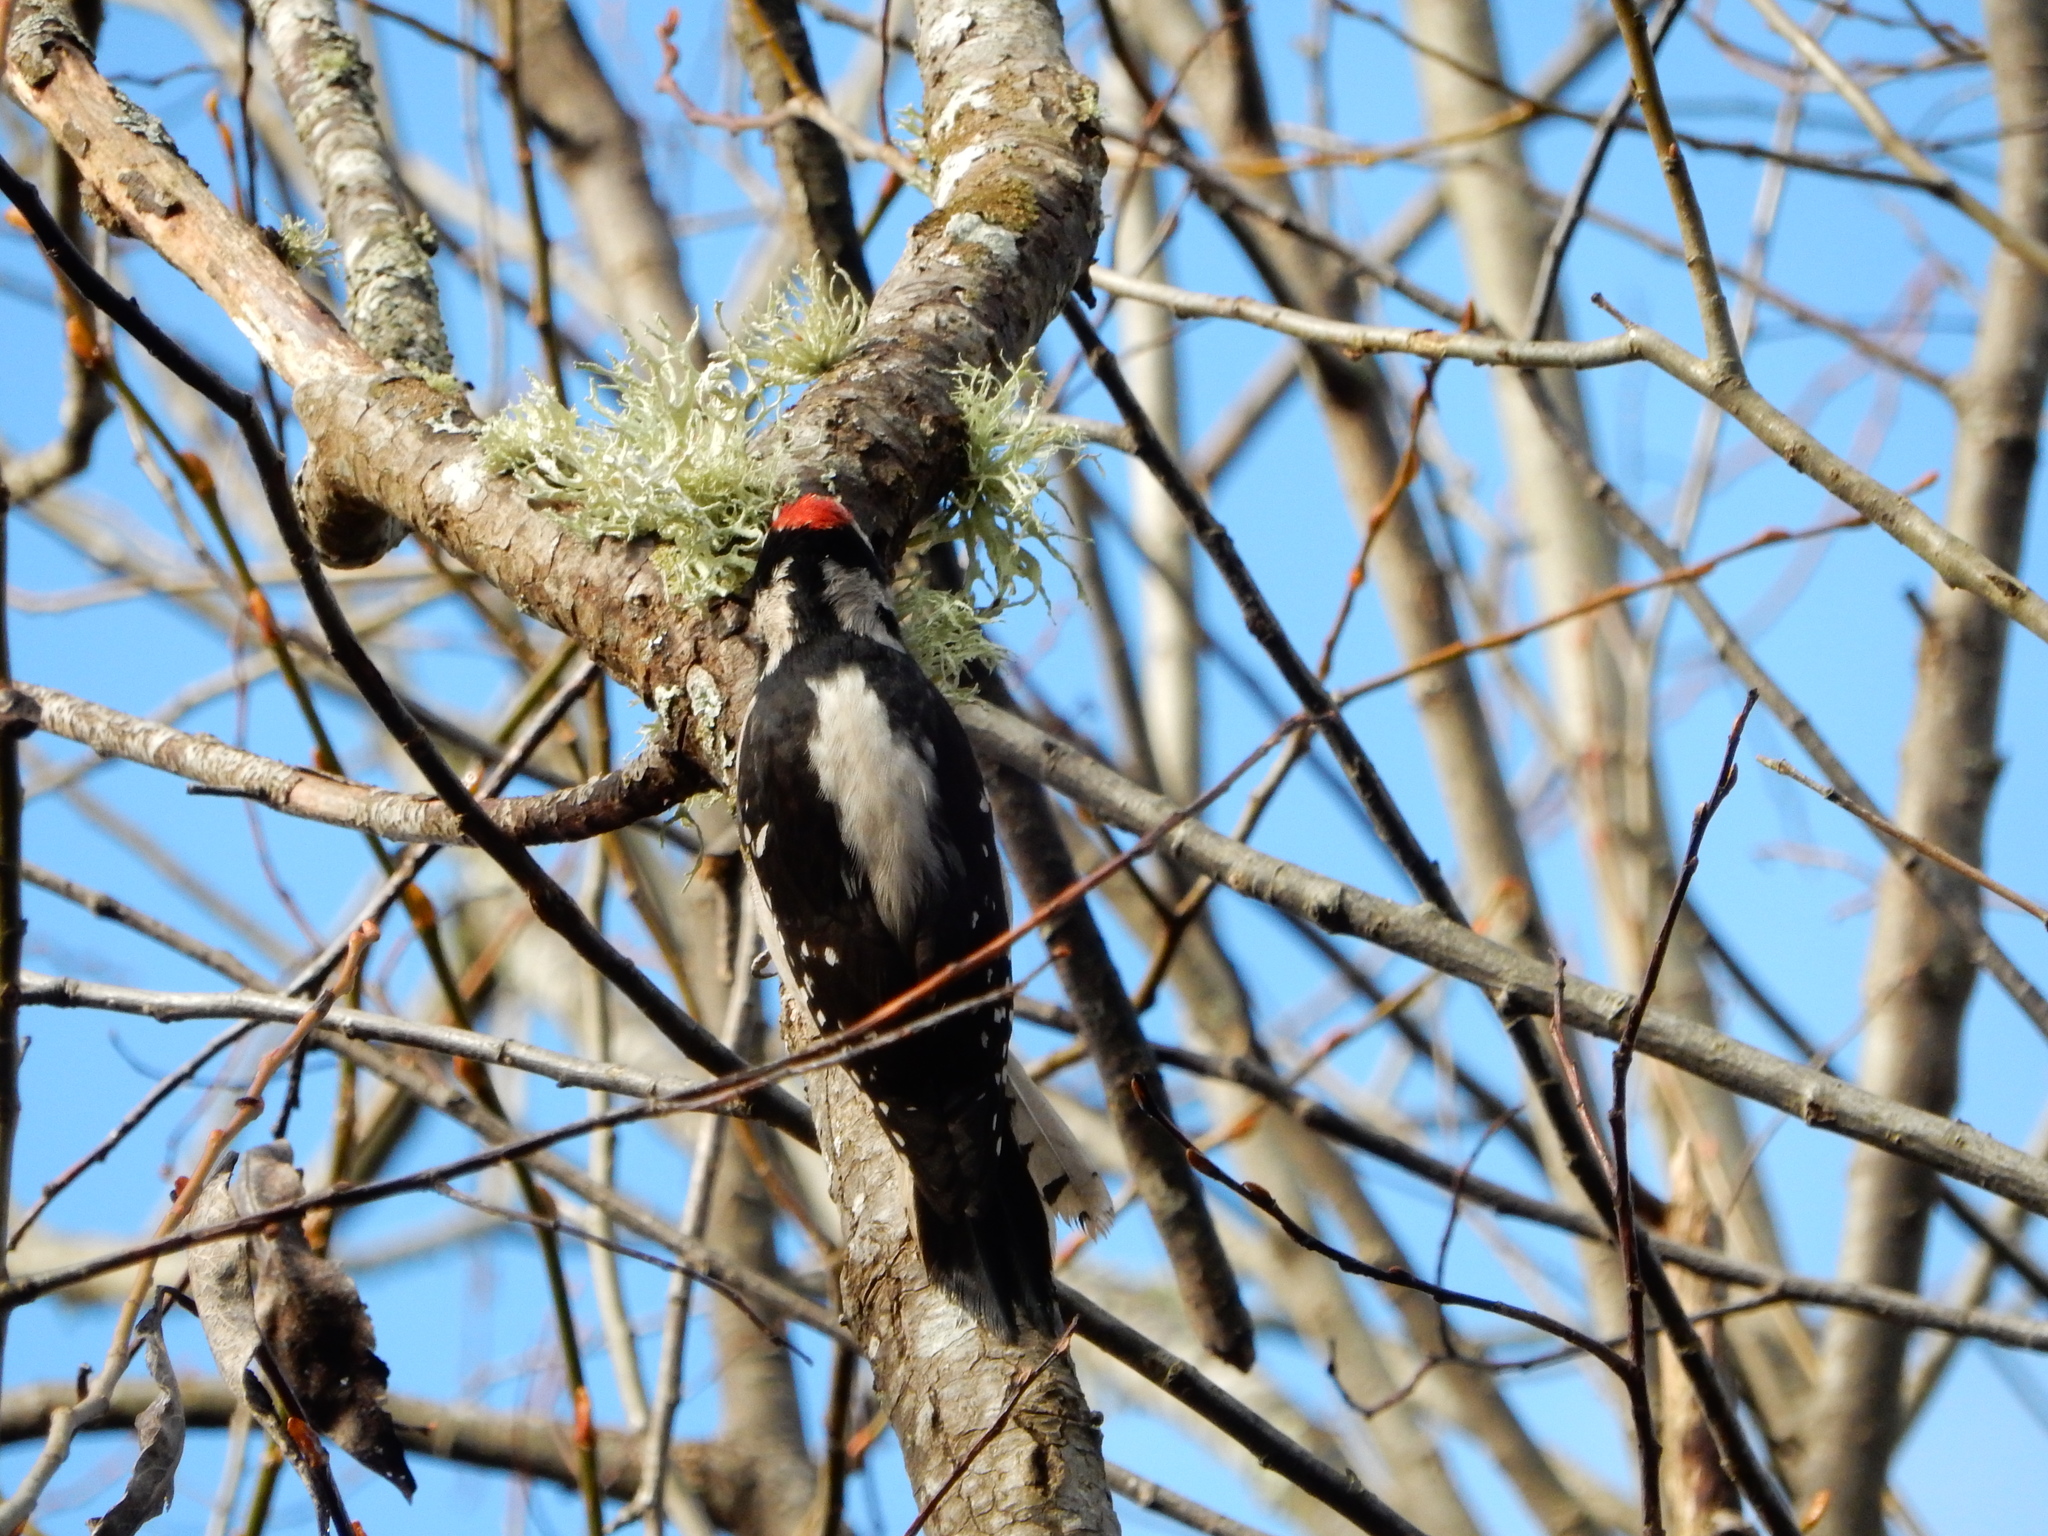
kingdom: Animalia
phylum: Chordata
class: Aves
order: Piciformes
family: Picidae
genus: Dryobates
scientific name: Dryobates pubescens
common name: Downy woodpecker
